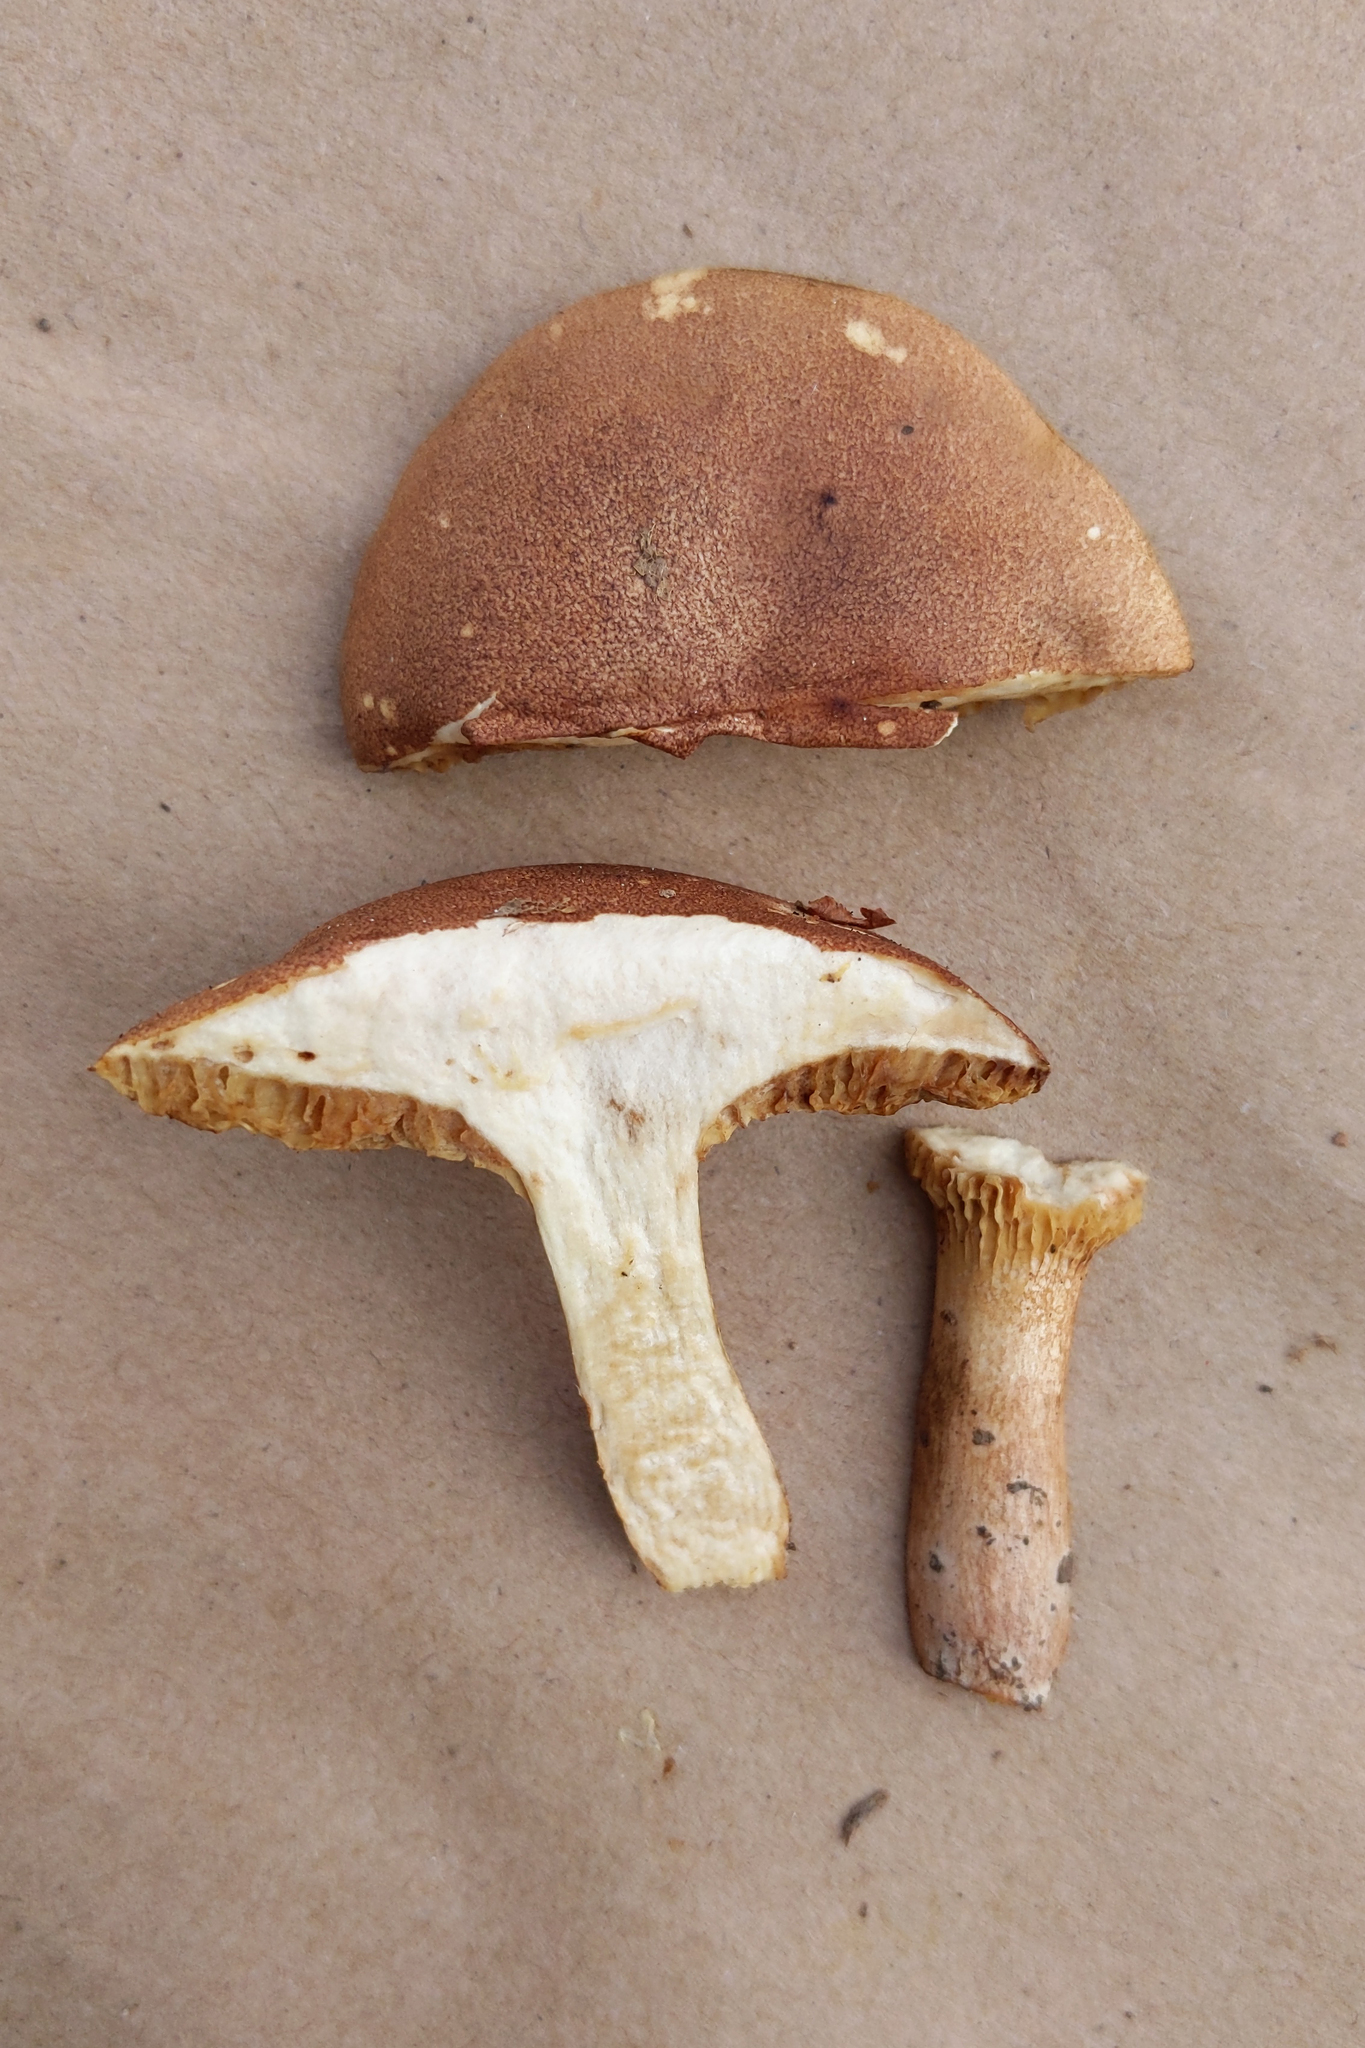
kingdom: Fungi
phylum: Basidiomycota
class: Agaricomycetes
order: Boletales
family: Boletaceae
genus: Bothia
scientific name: Bothia castanella
